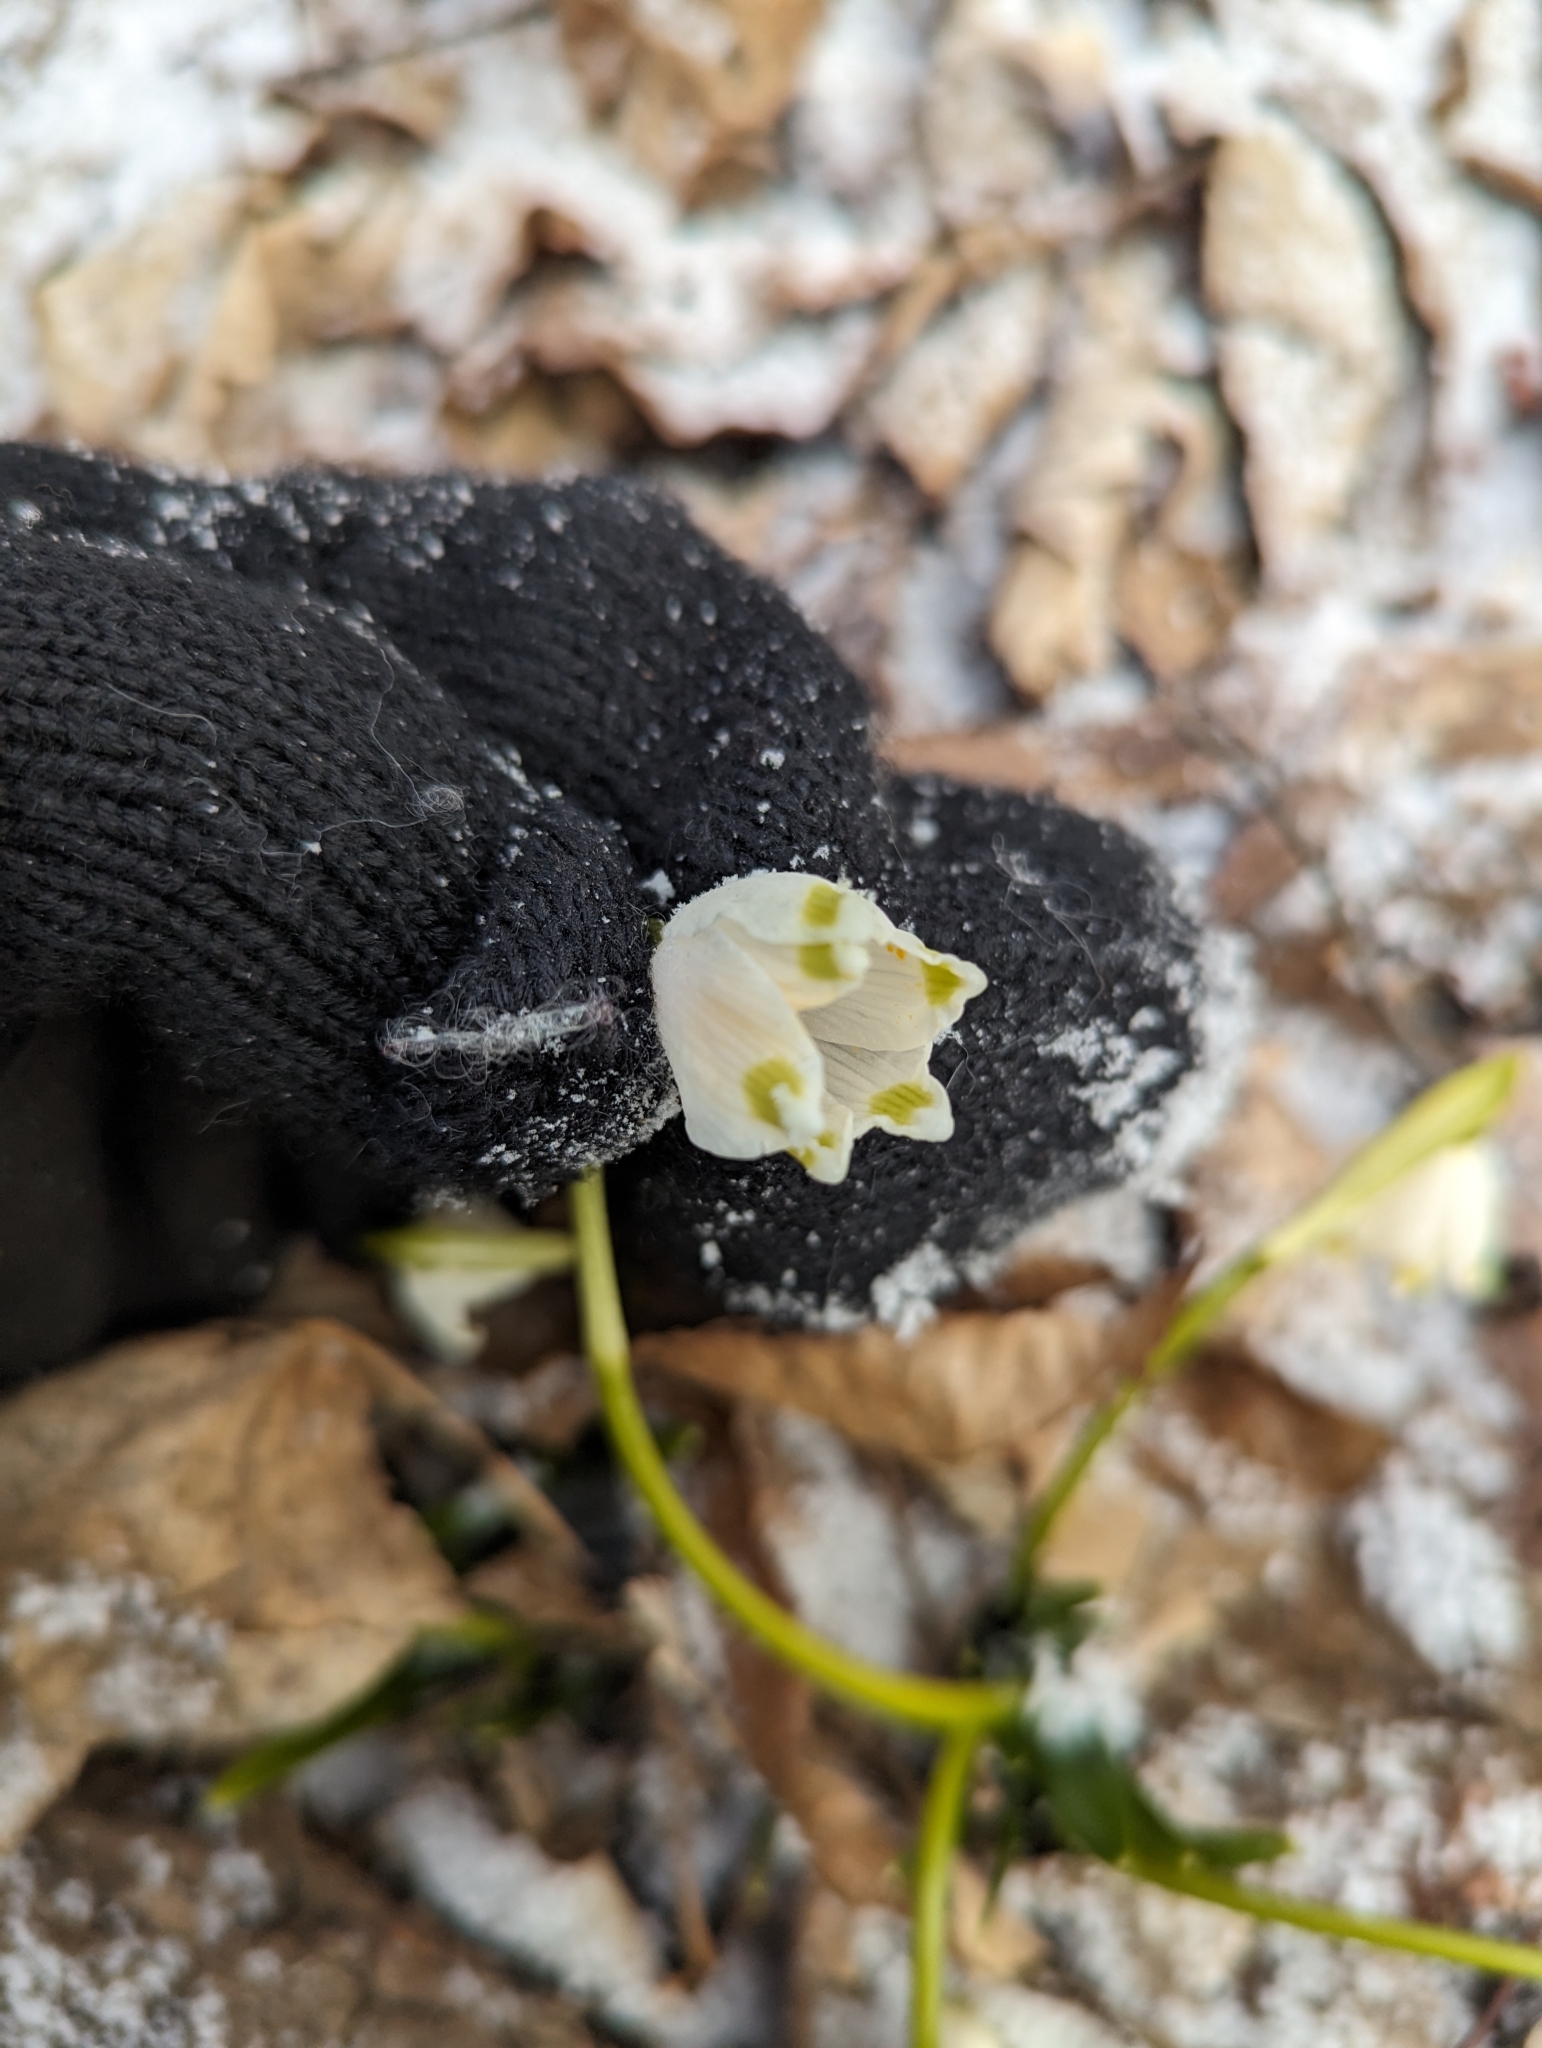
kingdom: Plantae
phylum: Tracheophyta
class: Liliopsida
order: Asparagales
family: Amaryllidaceae
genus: Leucojum
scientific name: Leucojum vernum
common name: Spring snowflake
